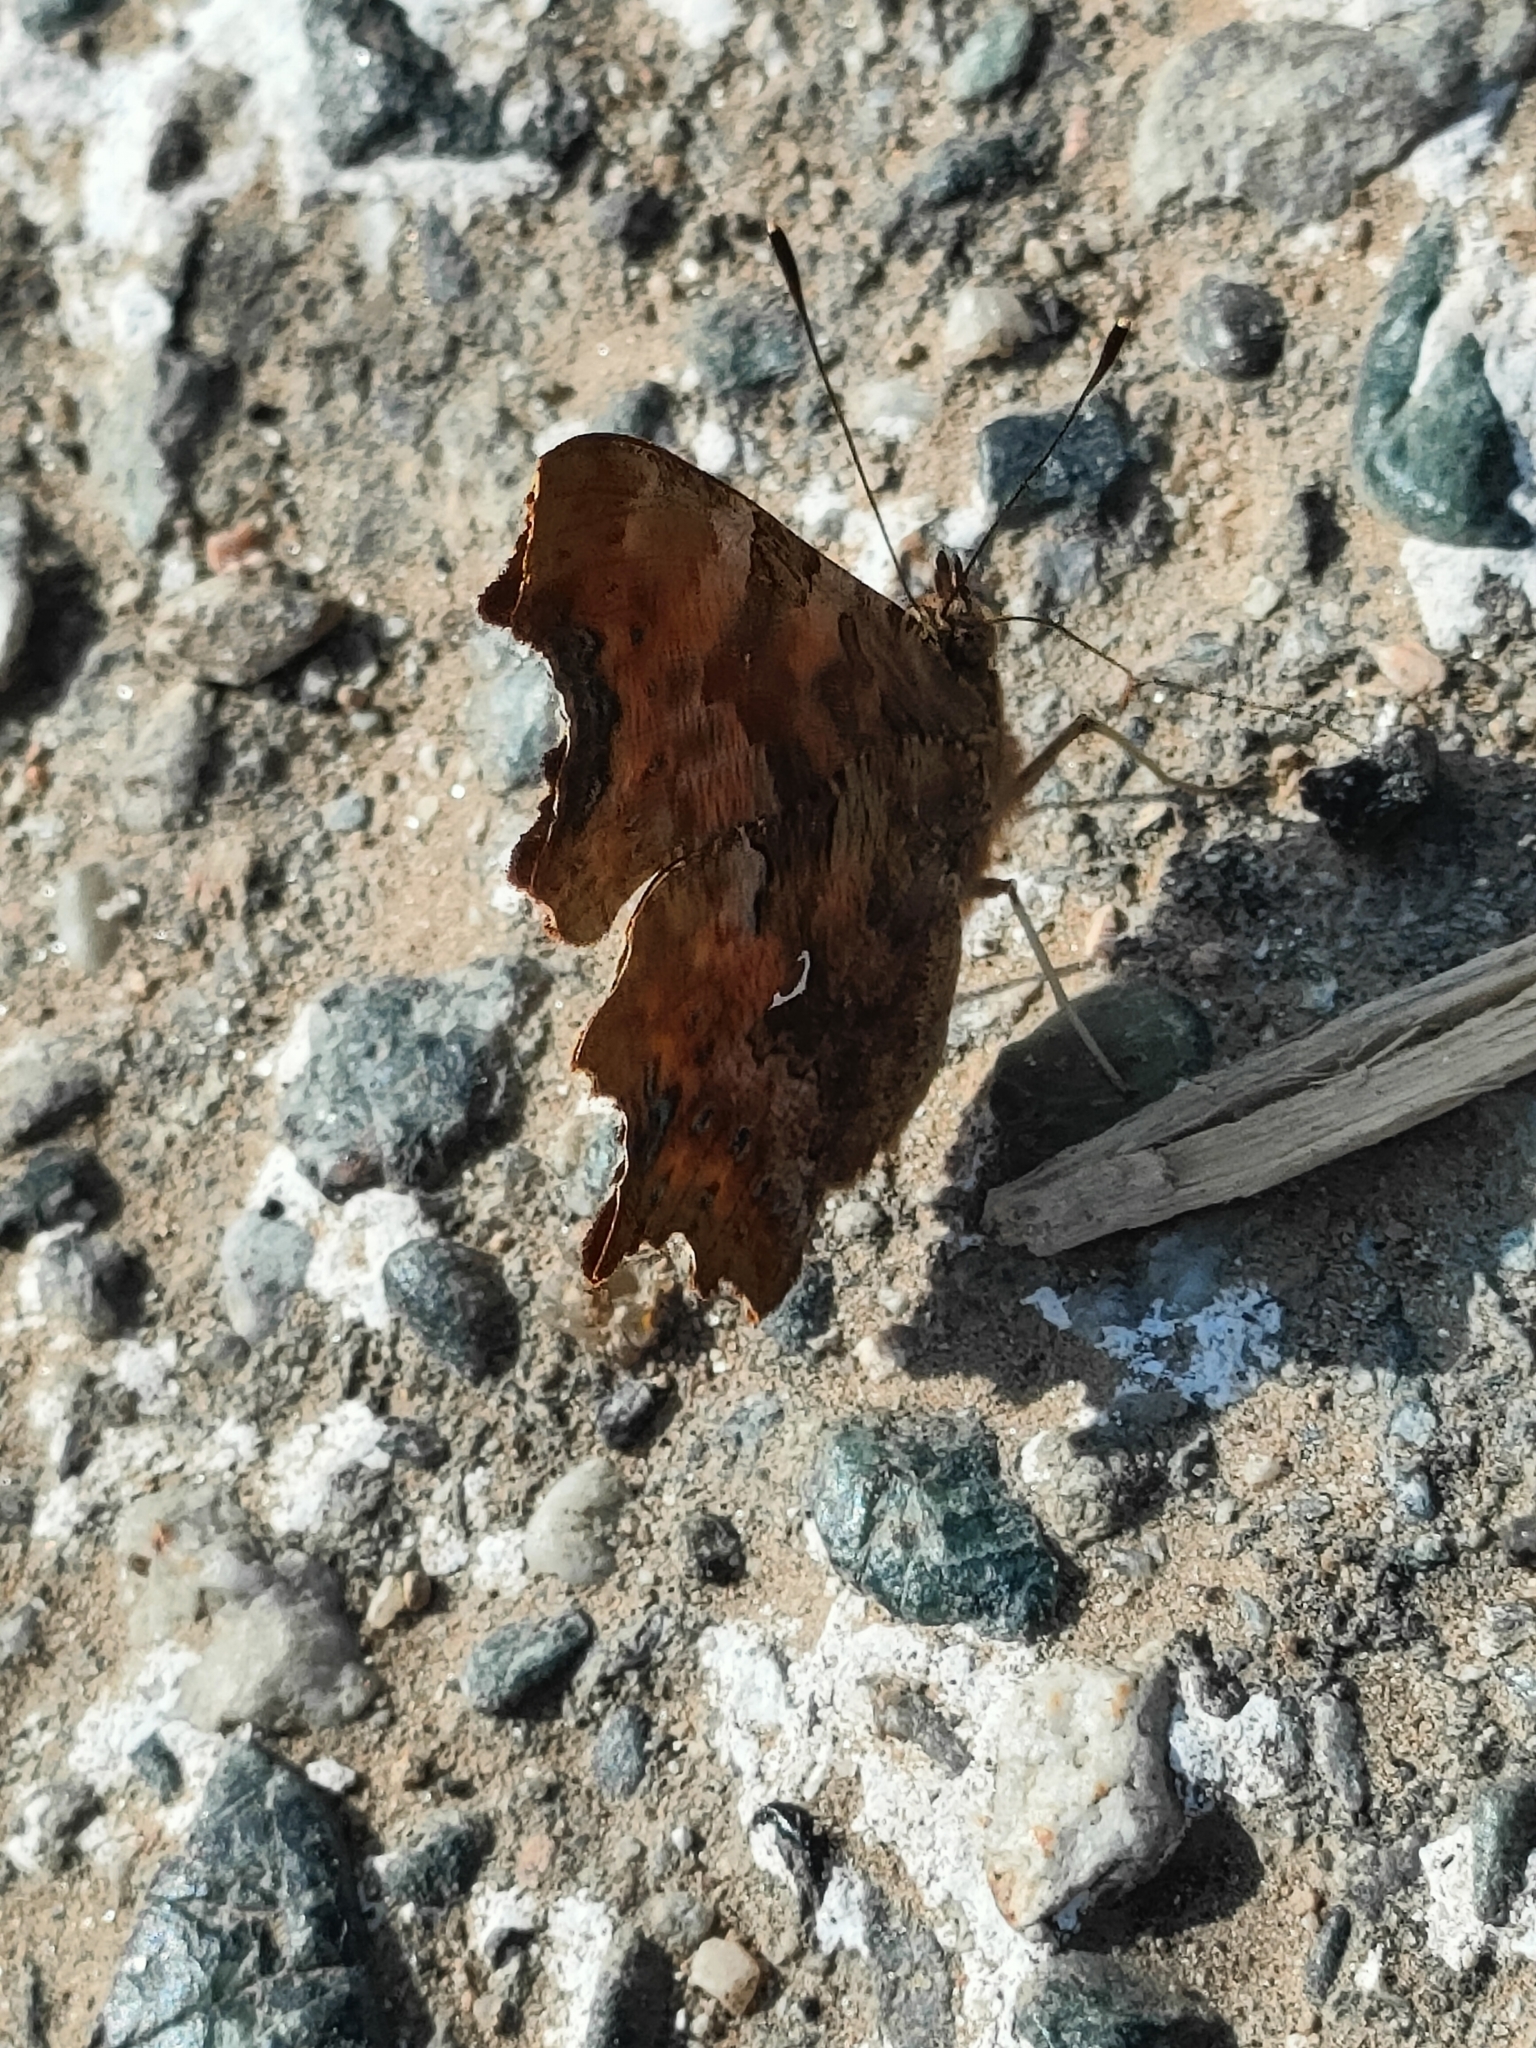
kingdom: Animalia
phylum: Arthropoda
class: Insecta
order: Lepidoptera
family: Nymphalidae
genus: Polygonia
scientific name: Polygonia c-album
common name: Comma
